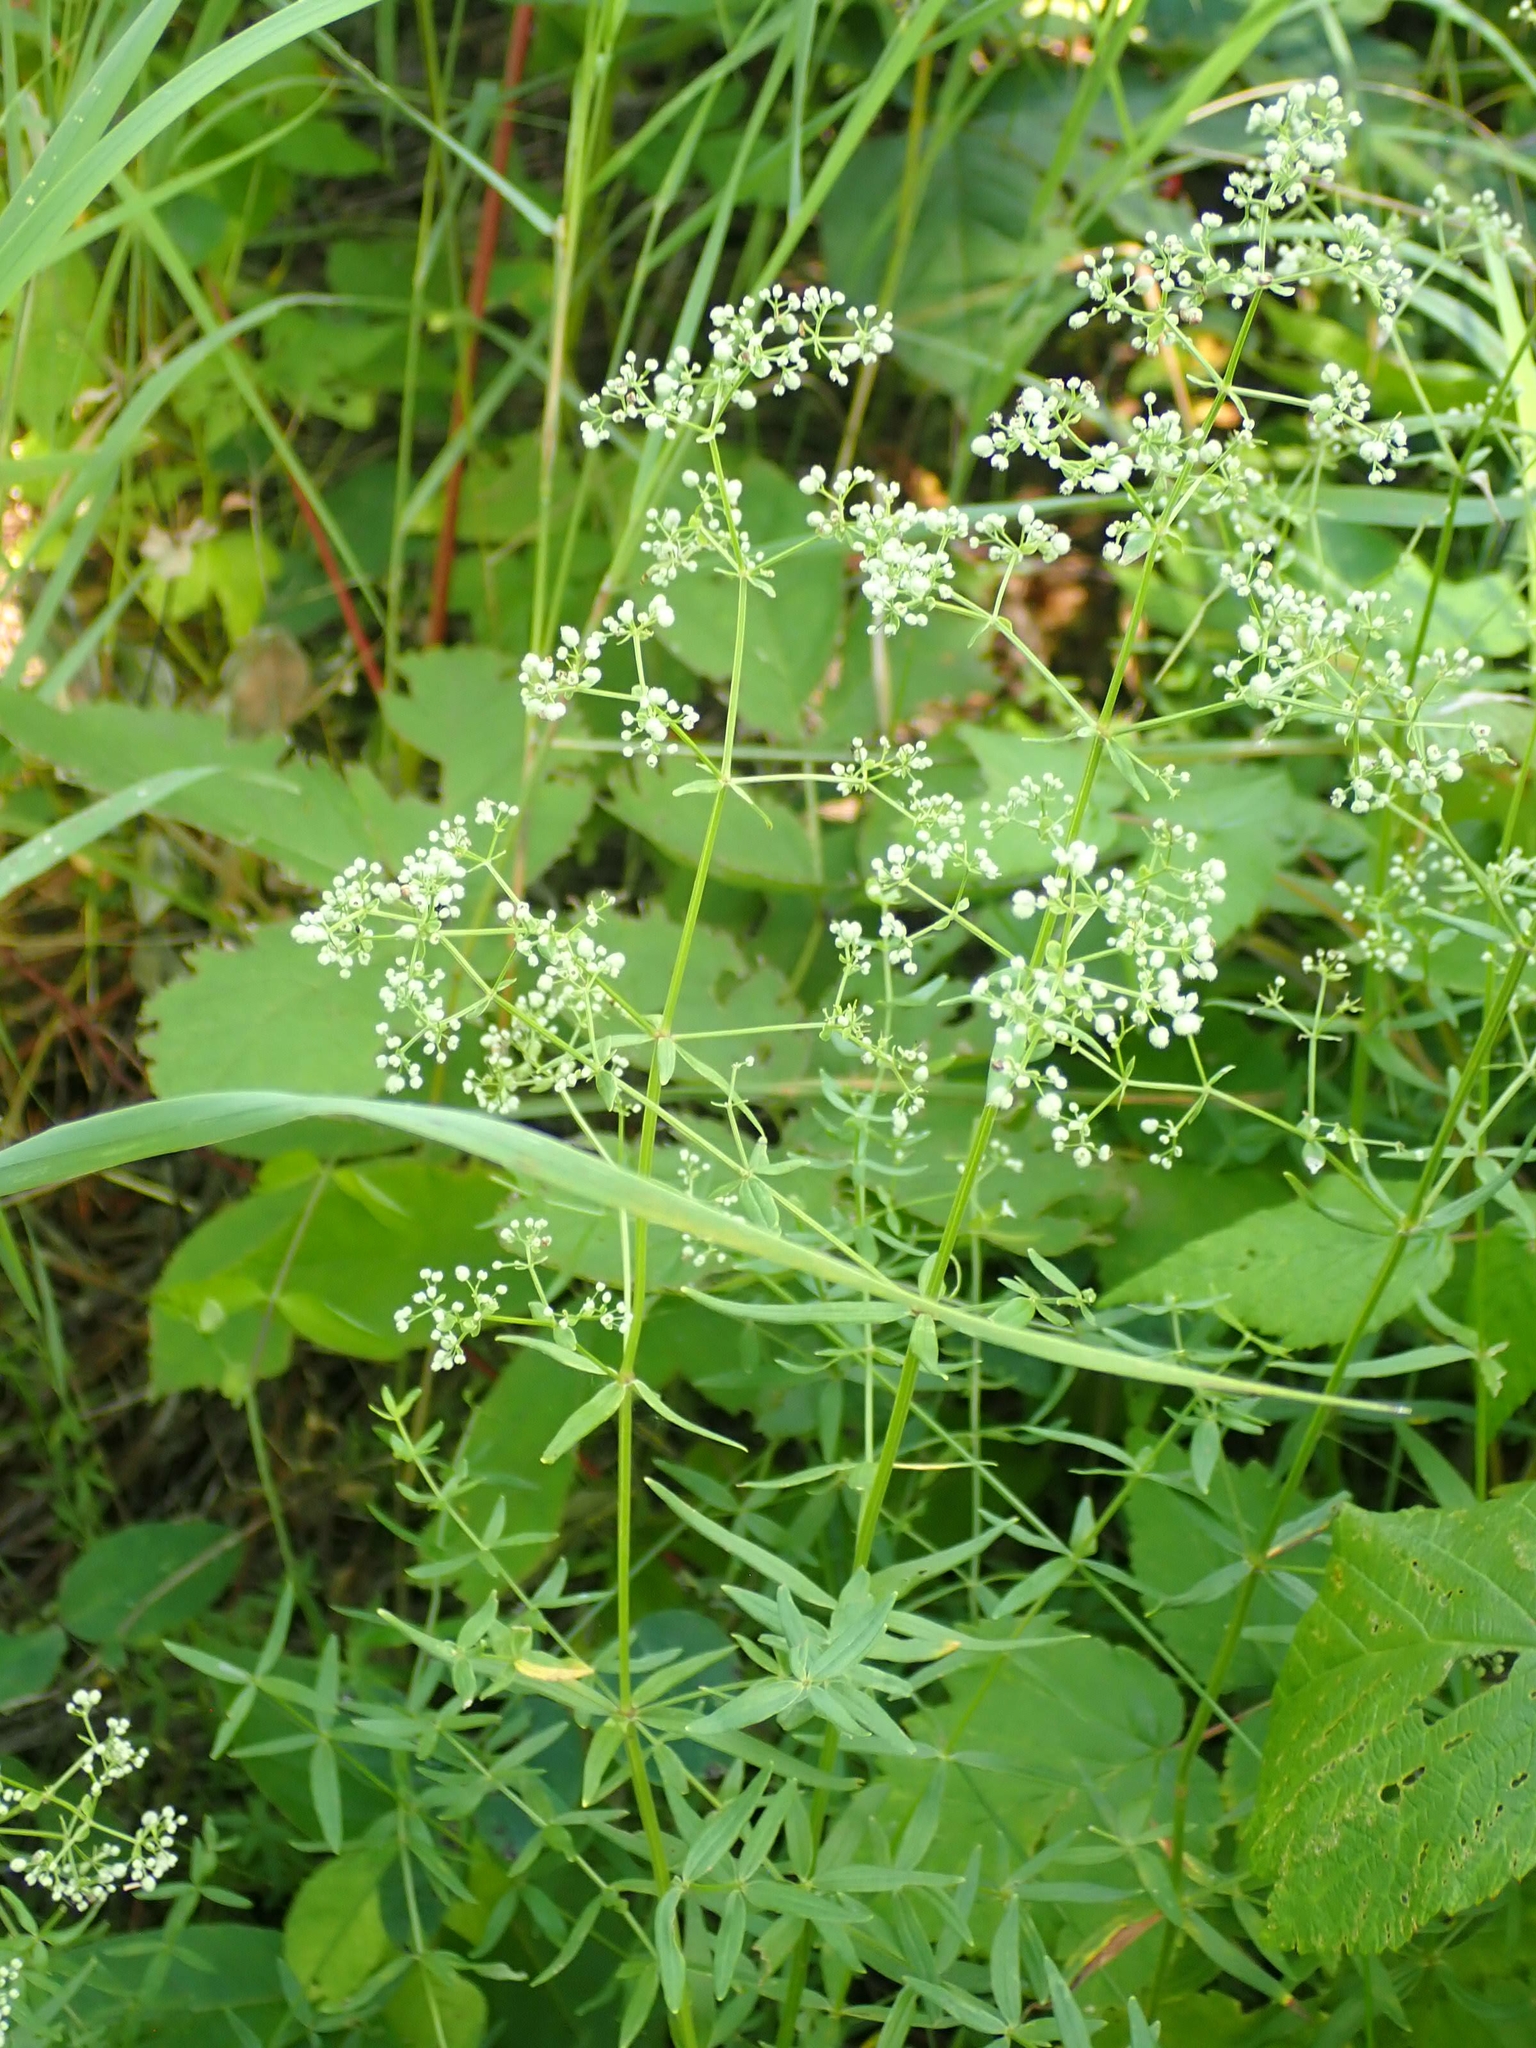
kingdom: Plantae
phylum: Tracheophyta
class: Magnoliopsida
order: Gentianales
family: Rubiaceae
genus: Galium
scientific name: Galium boreale
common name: Northern bedstraw
